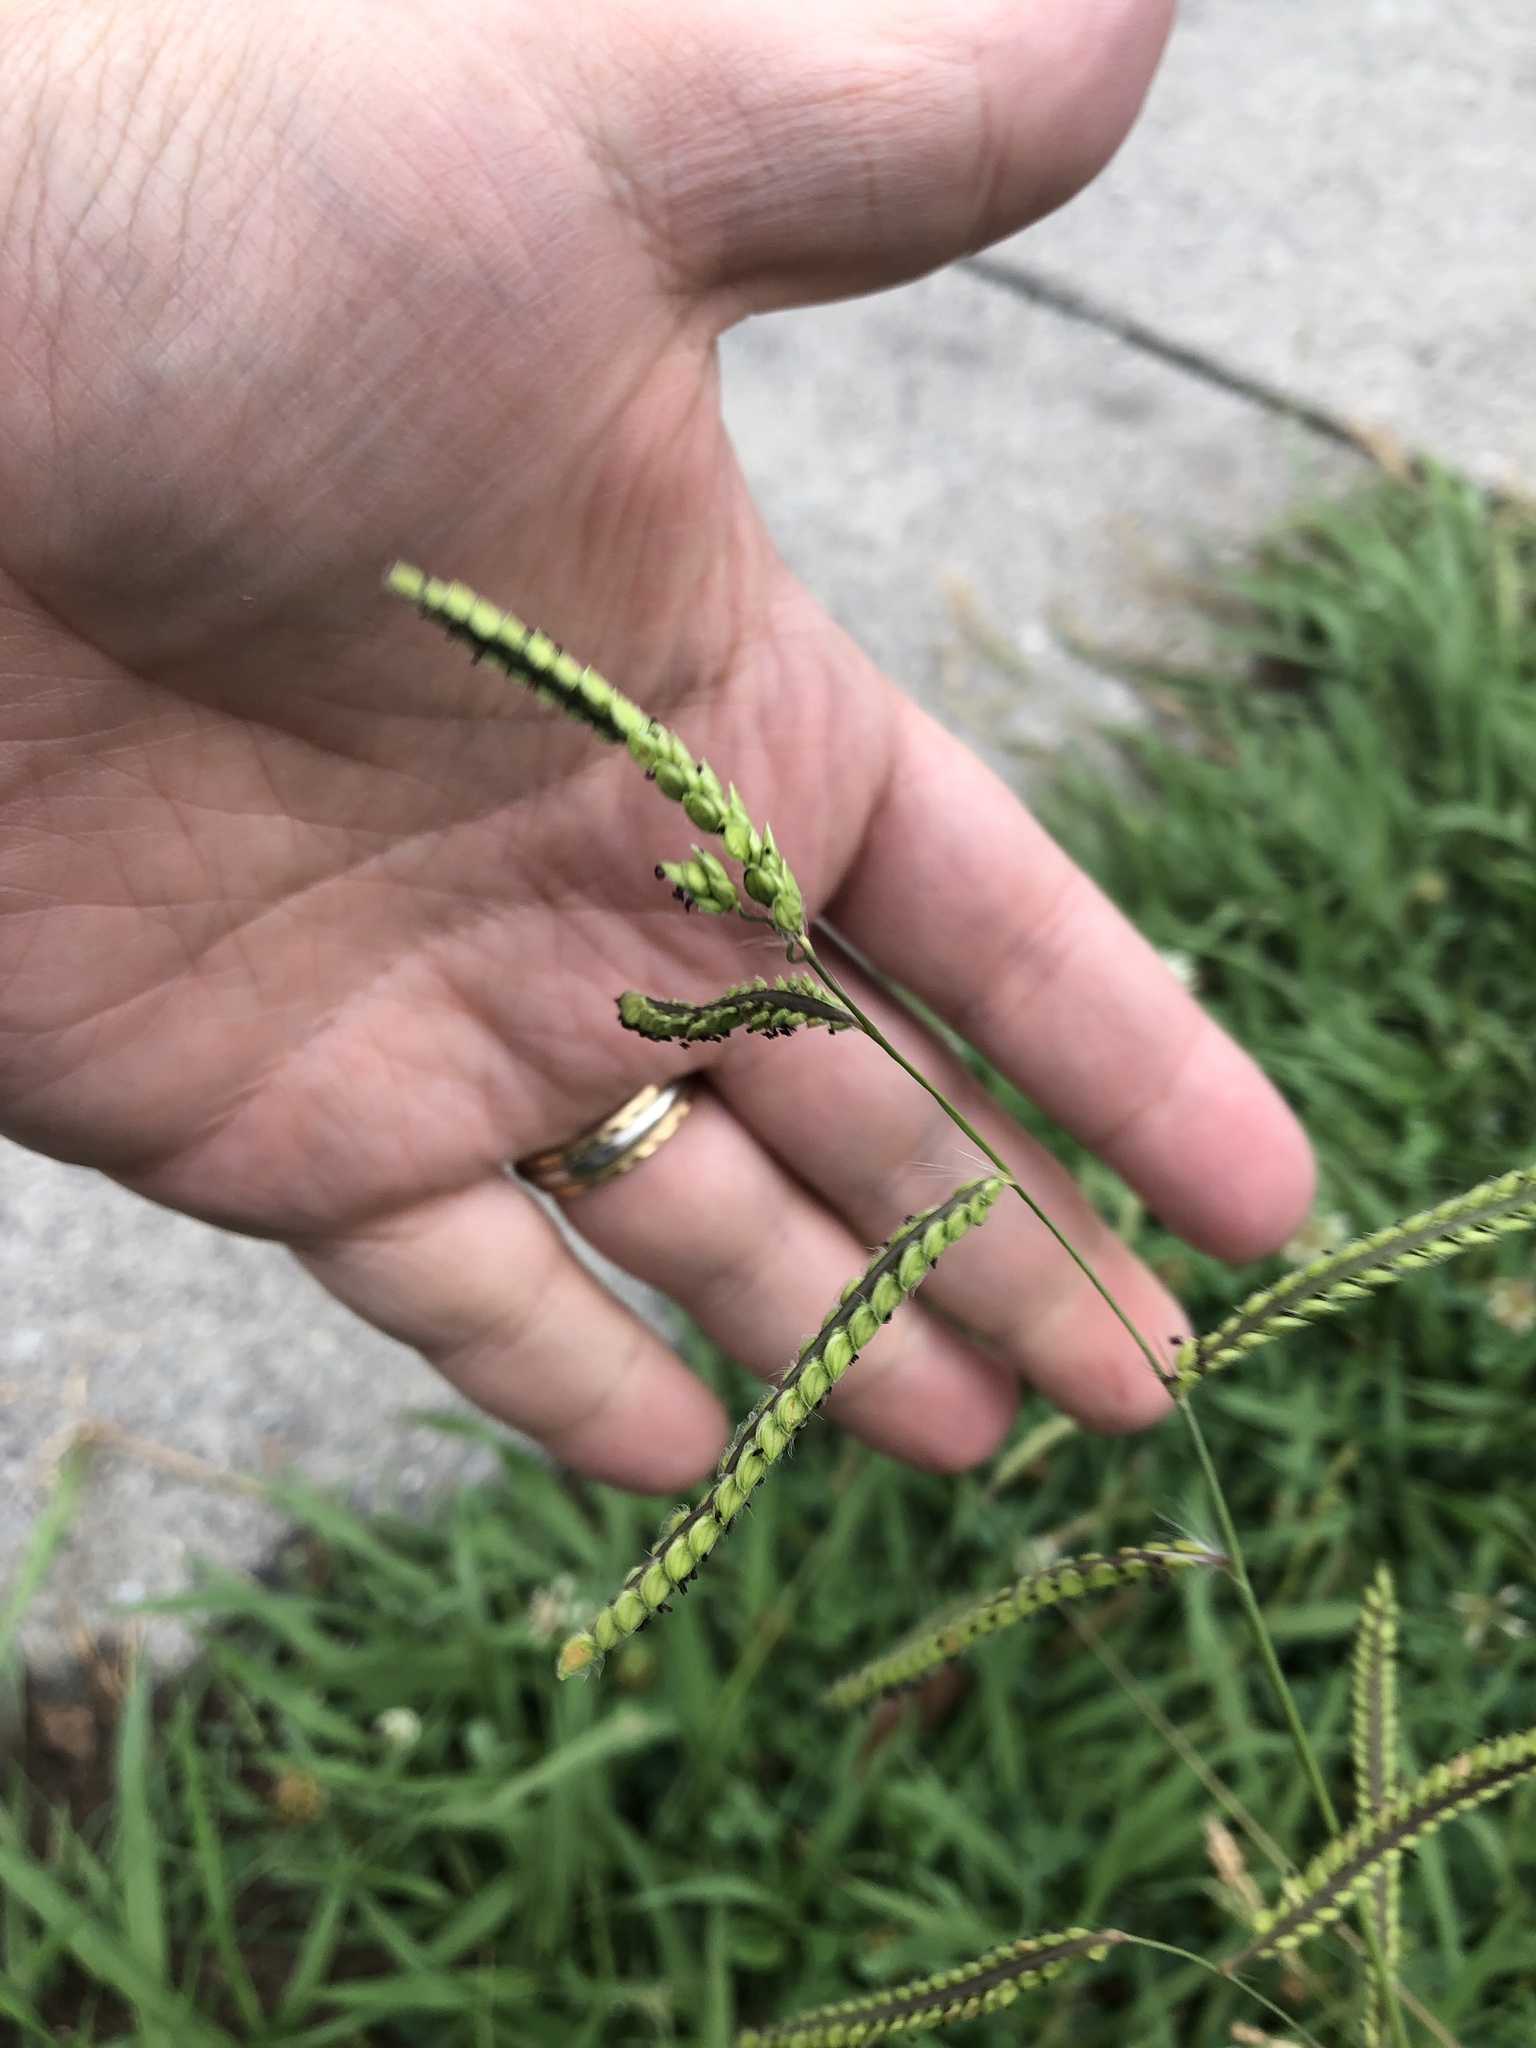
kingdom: Plantae
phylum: Tracheophyta
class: Liliopsida
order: Poales
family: Poaceae
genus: Paspalum
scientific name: Paspalum dilatatum
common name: Dallisgrass
